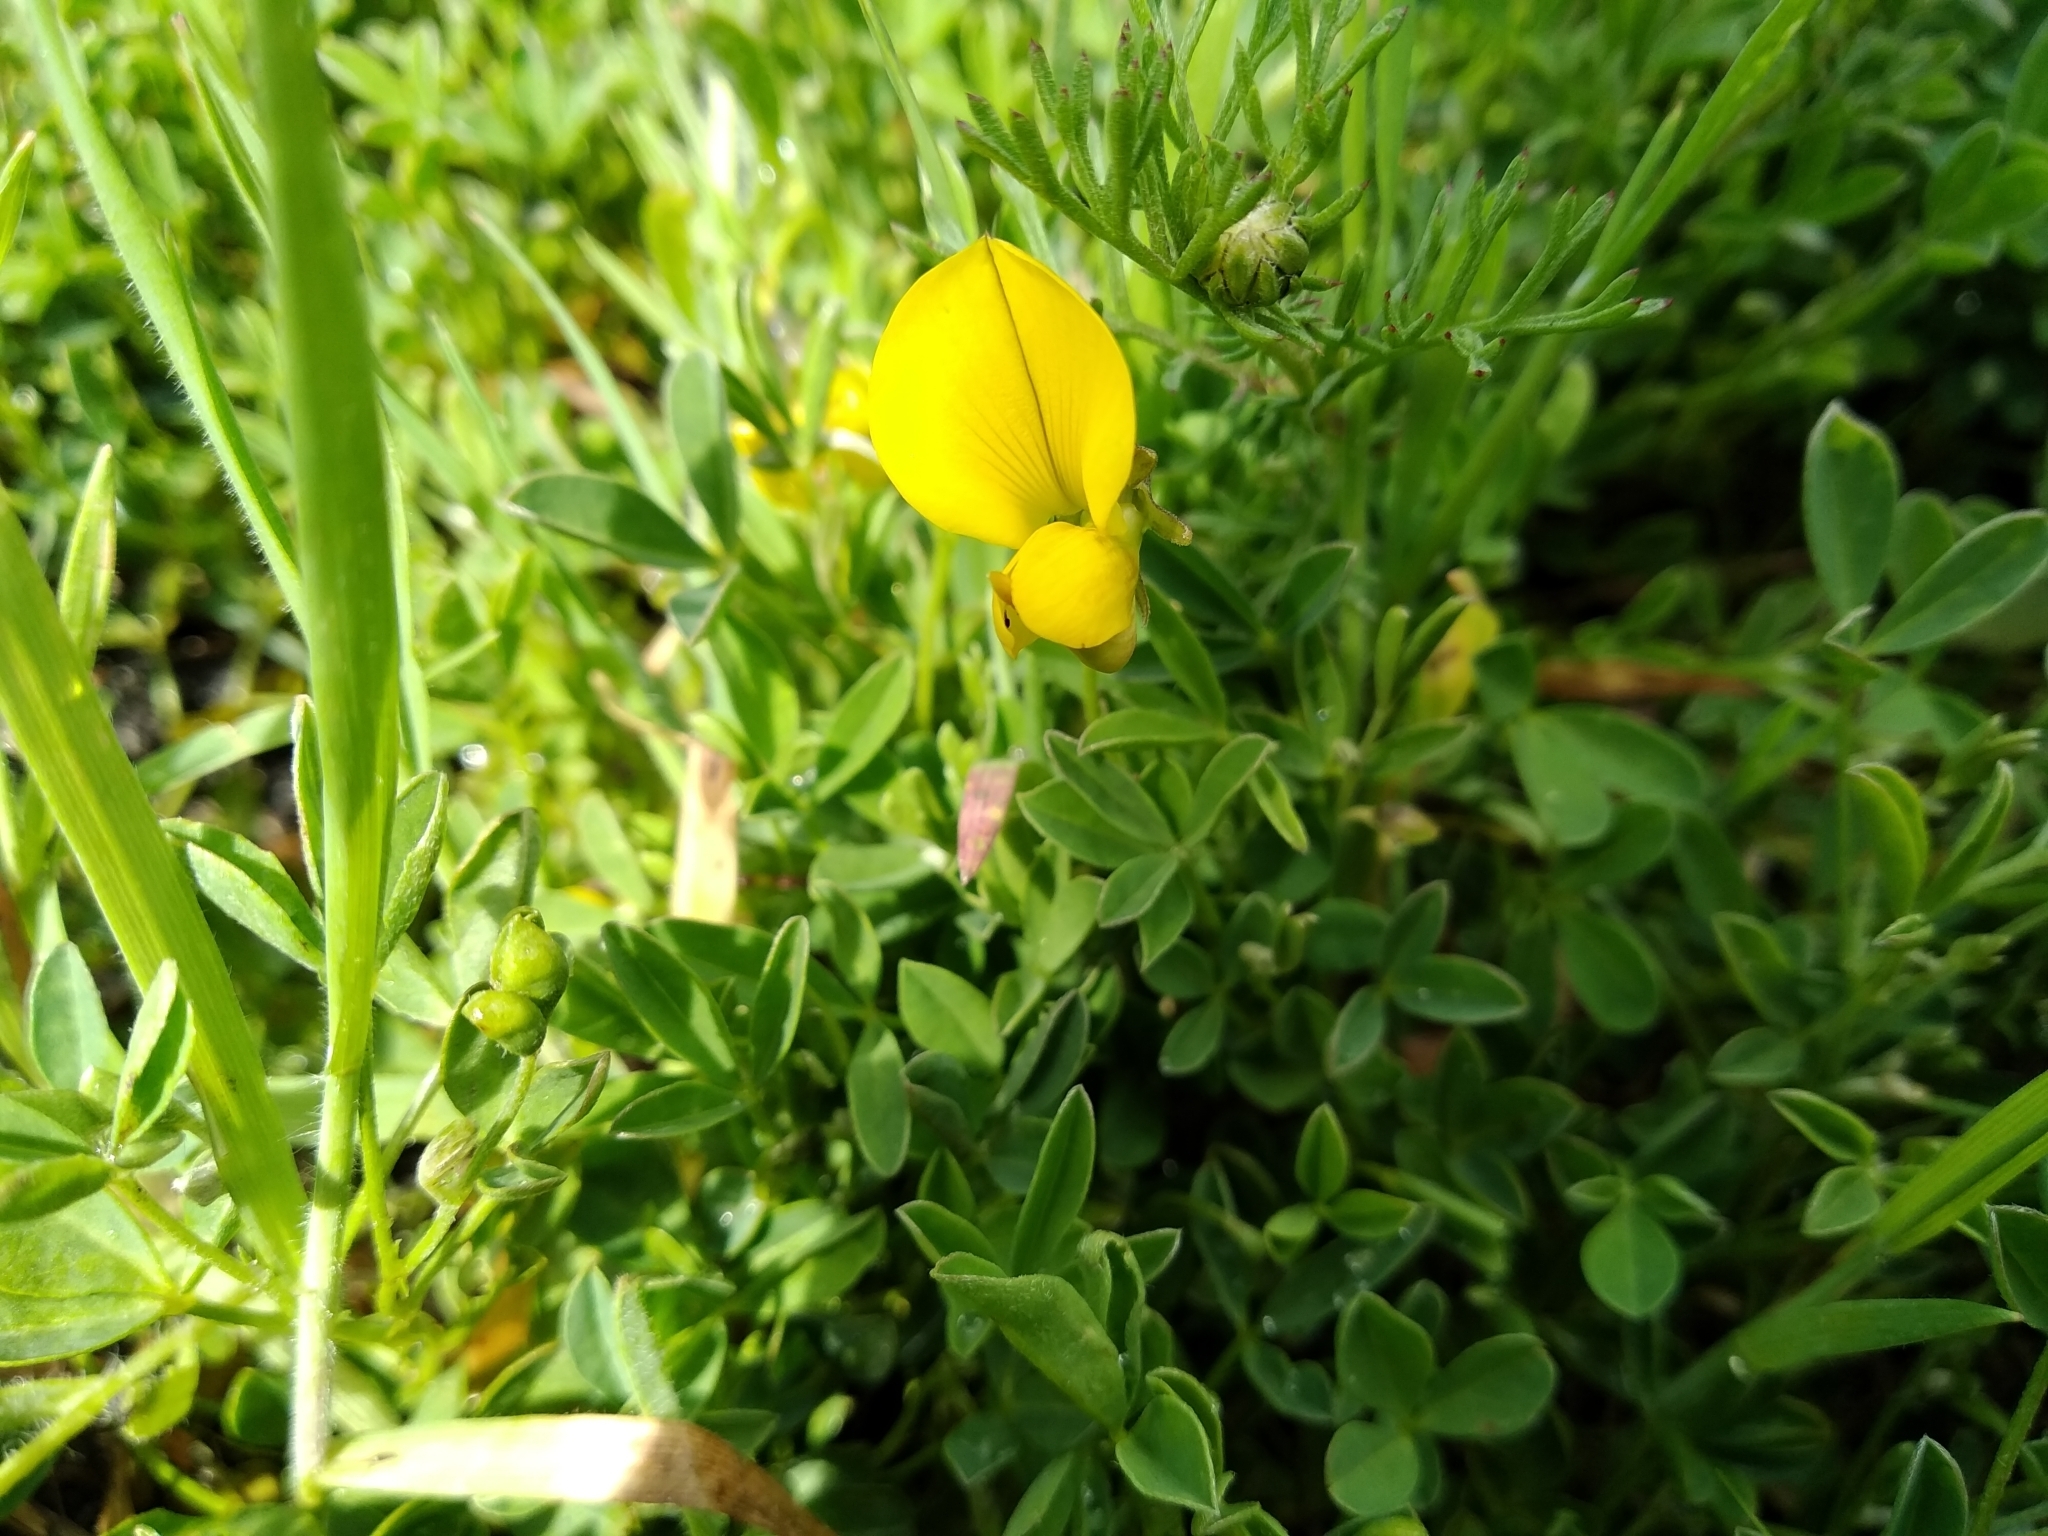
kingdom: Plantae
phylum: Tracheophyta
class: Magnoliopsida
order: Fabales
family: Fabaceae
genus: Crotalaria
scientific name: Crotalaria excisa
